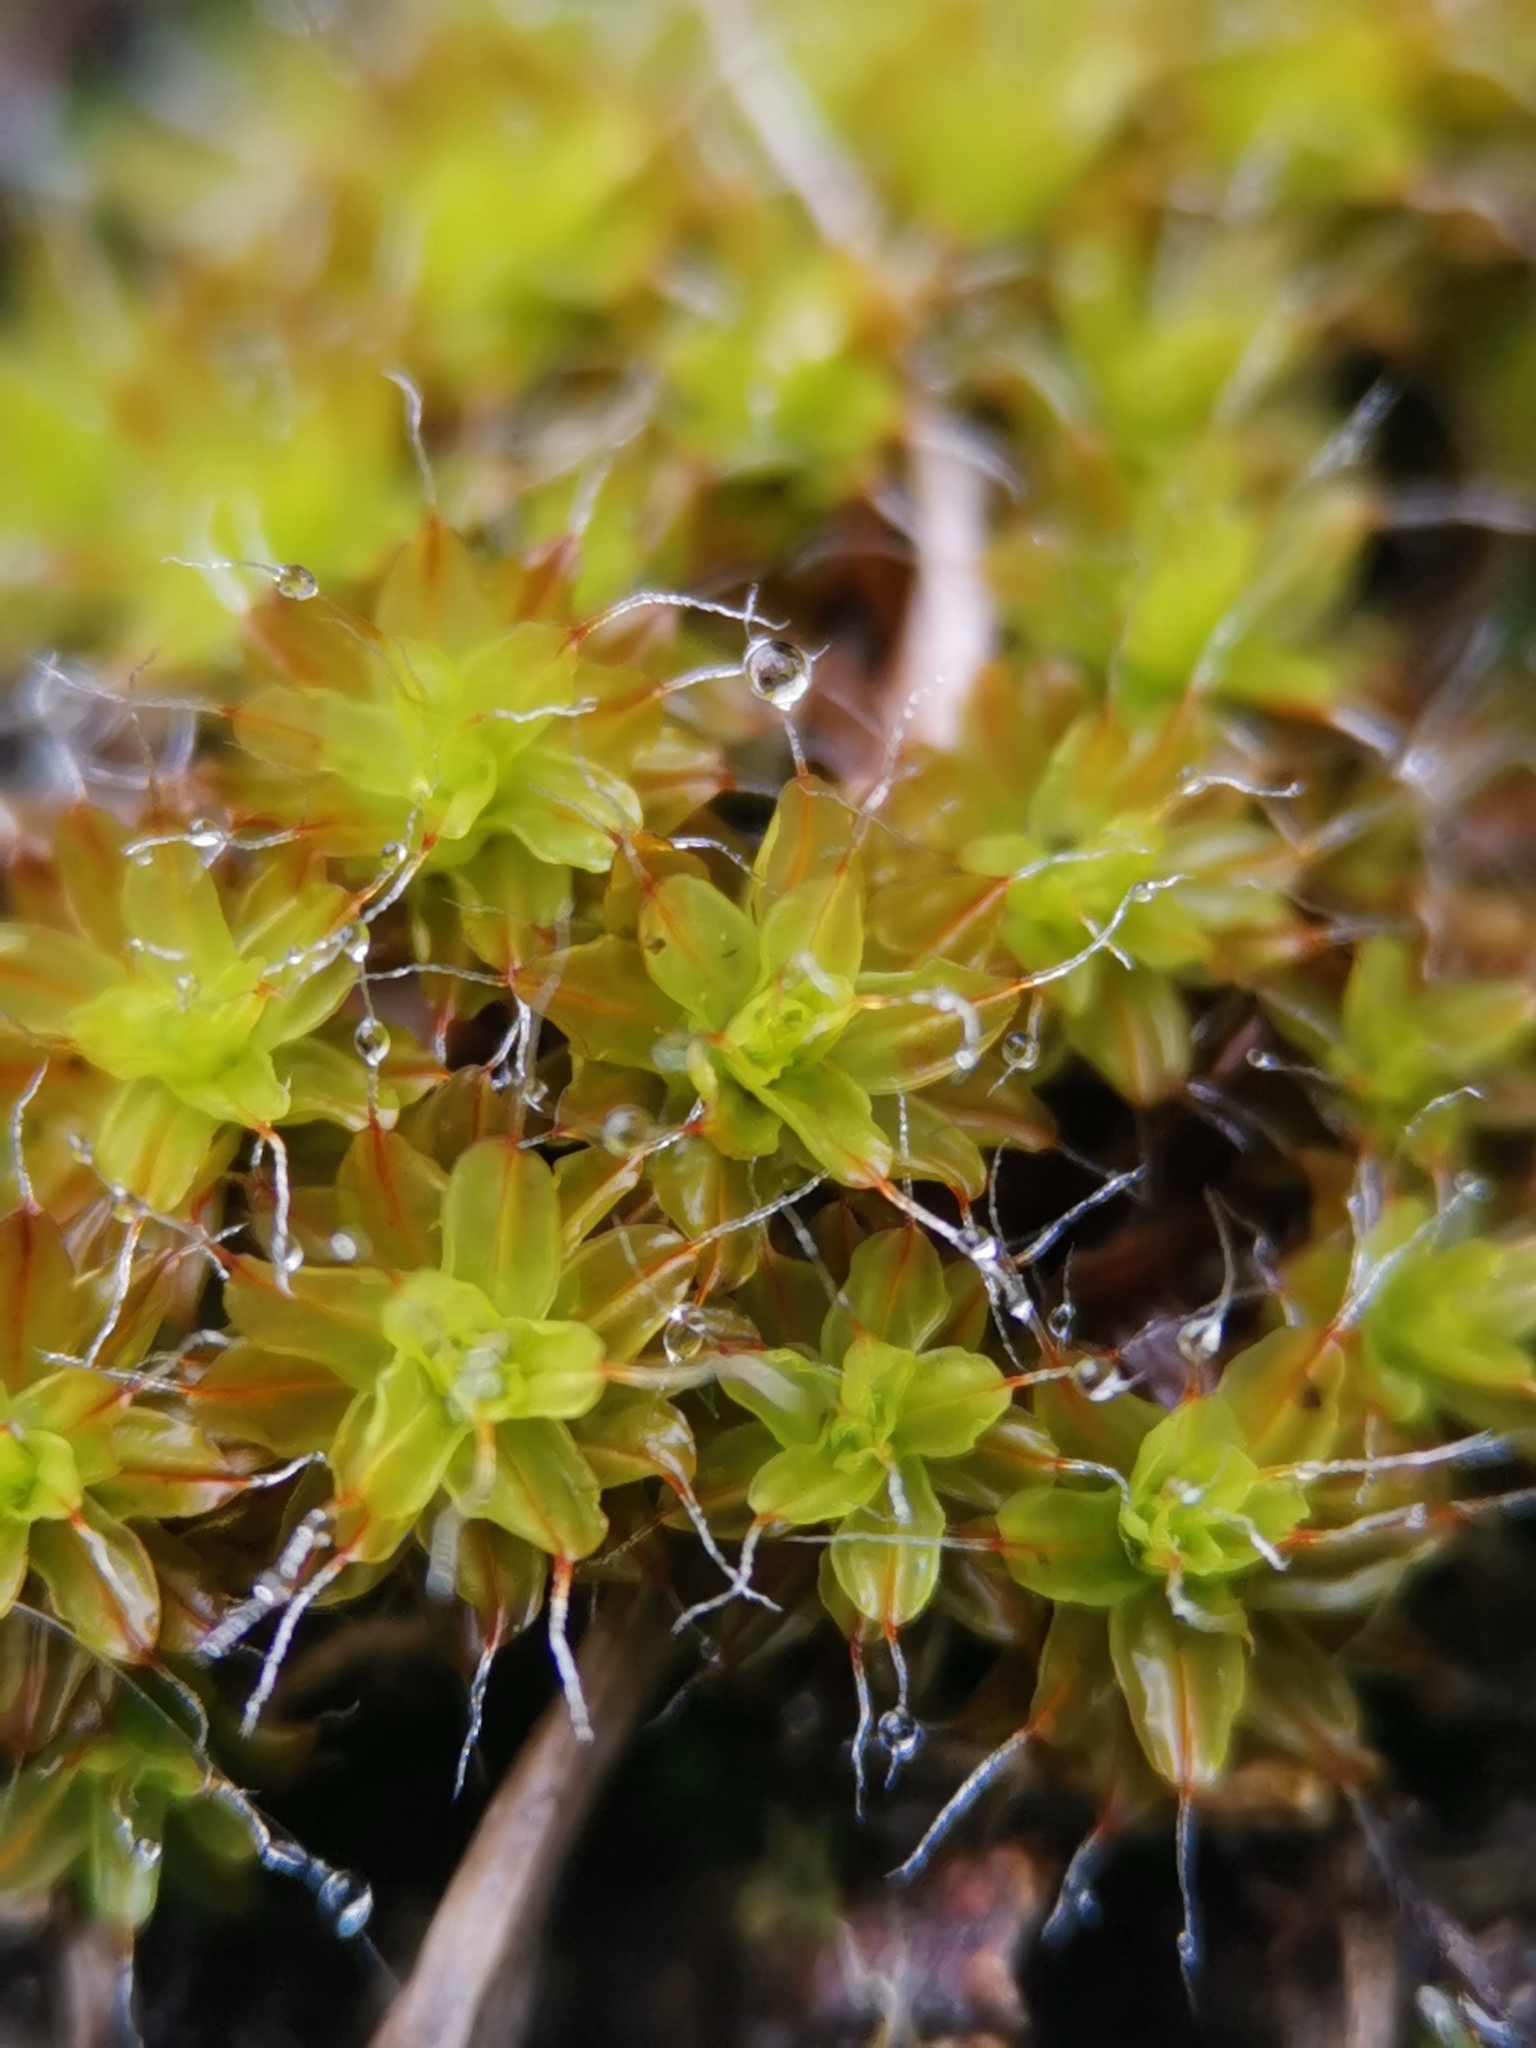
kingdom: Plantae
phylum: Bryophyta
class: Bryopsida
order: Pottiales
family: Pottiaceae
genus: Syntrichia
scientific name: Syntrichia ruralis
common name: Sidewalk screw moss
